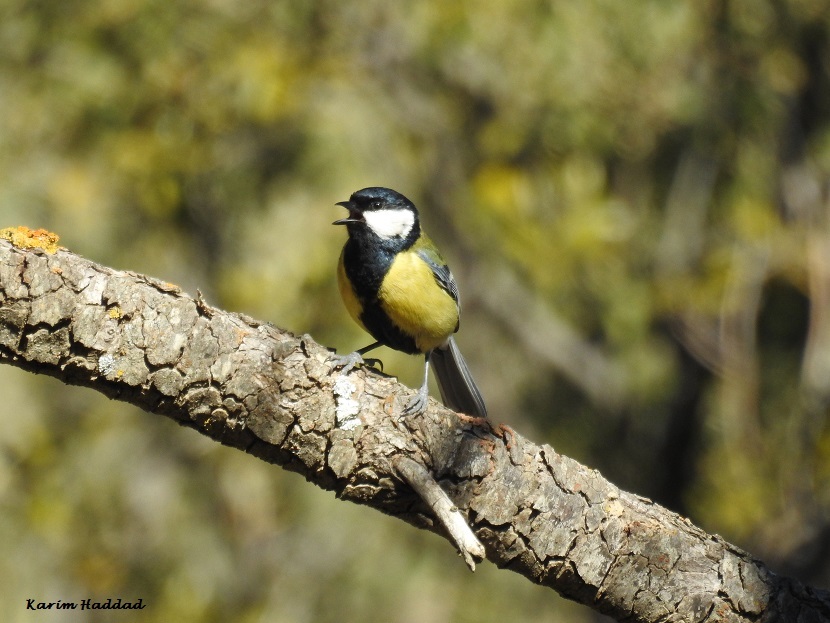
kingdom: Animalia
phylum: Chordata
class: Aves
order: Passeriformes
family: Paridae
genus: Parus
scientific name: Parus major
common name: Great tit
